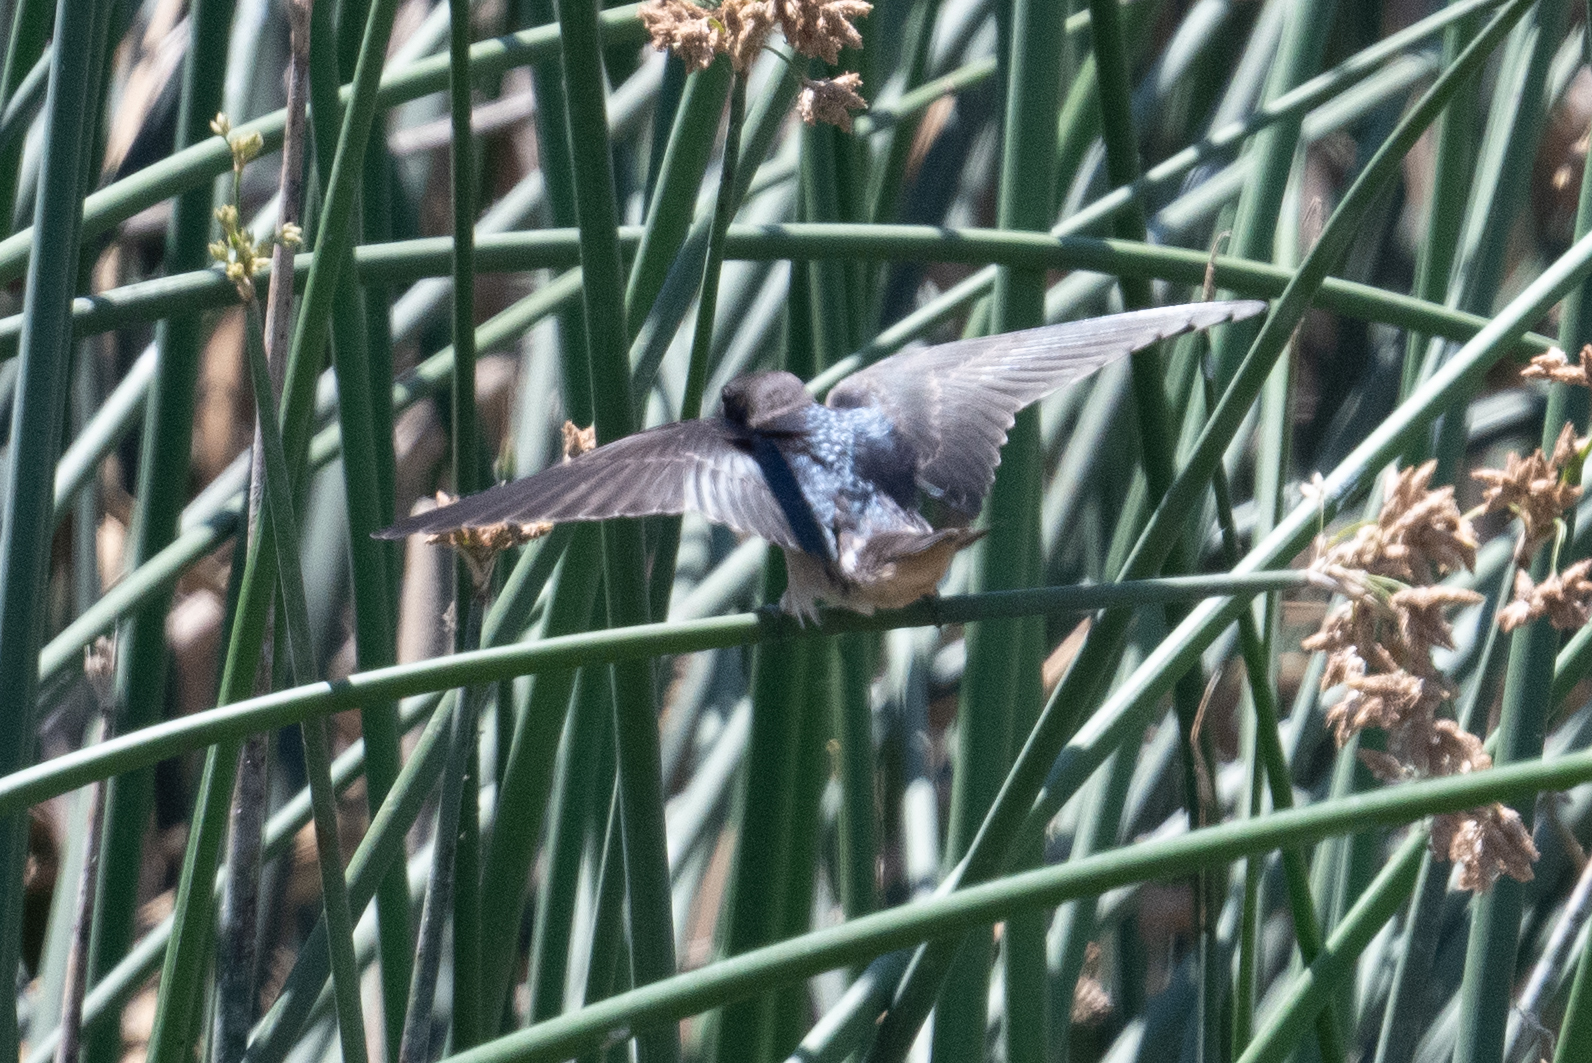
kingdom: Animalia
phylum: Chordata
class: Aves
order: Passeriformes
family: Hirundinidae
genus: Hirundo
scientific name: Hirundo rustica
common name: Barn swallow
